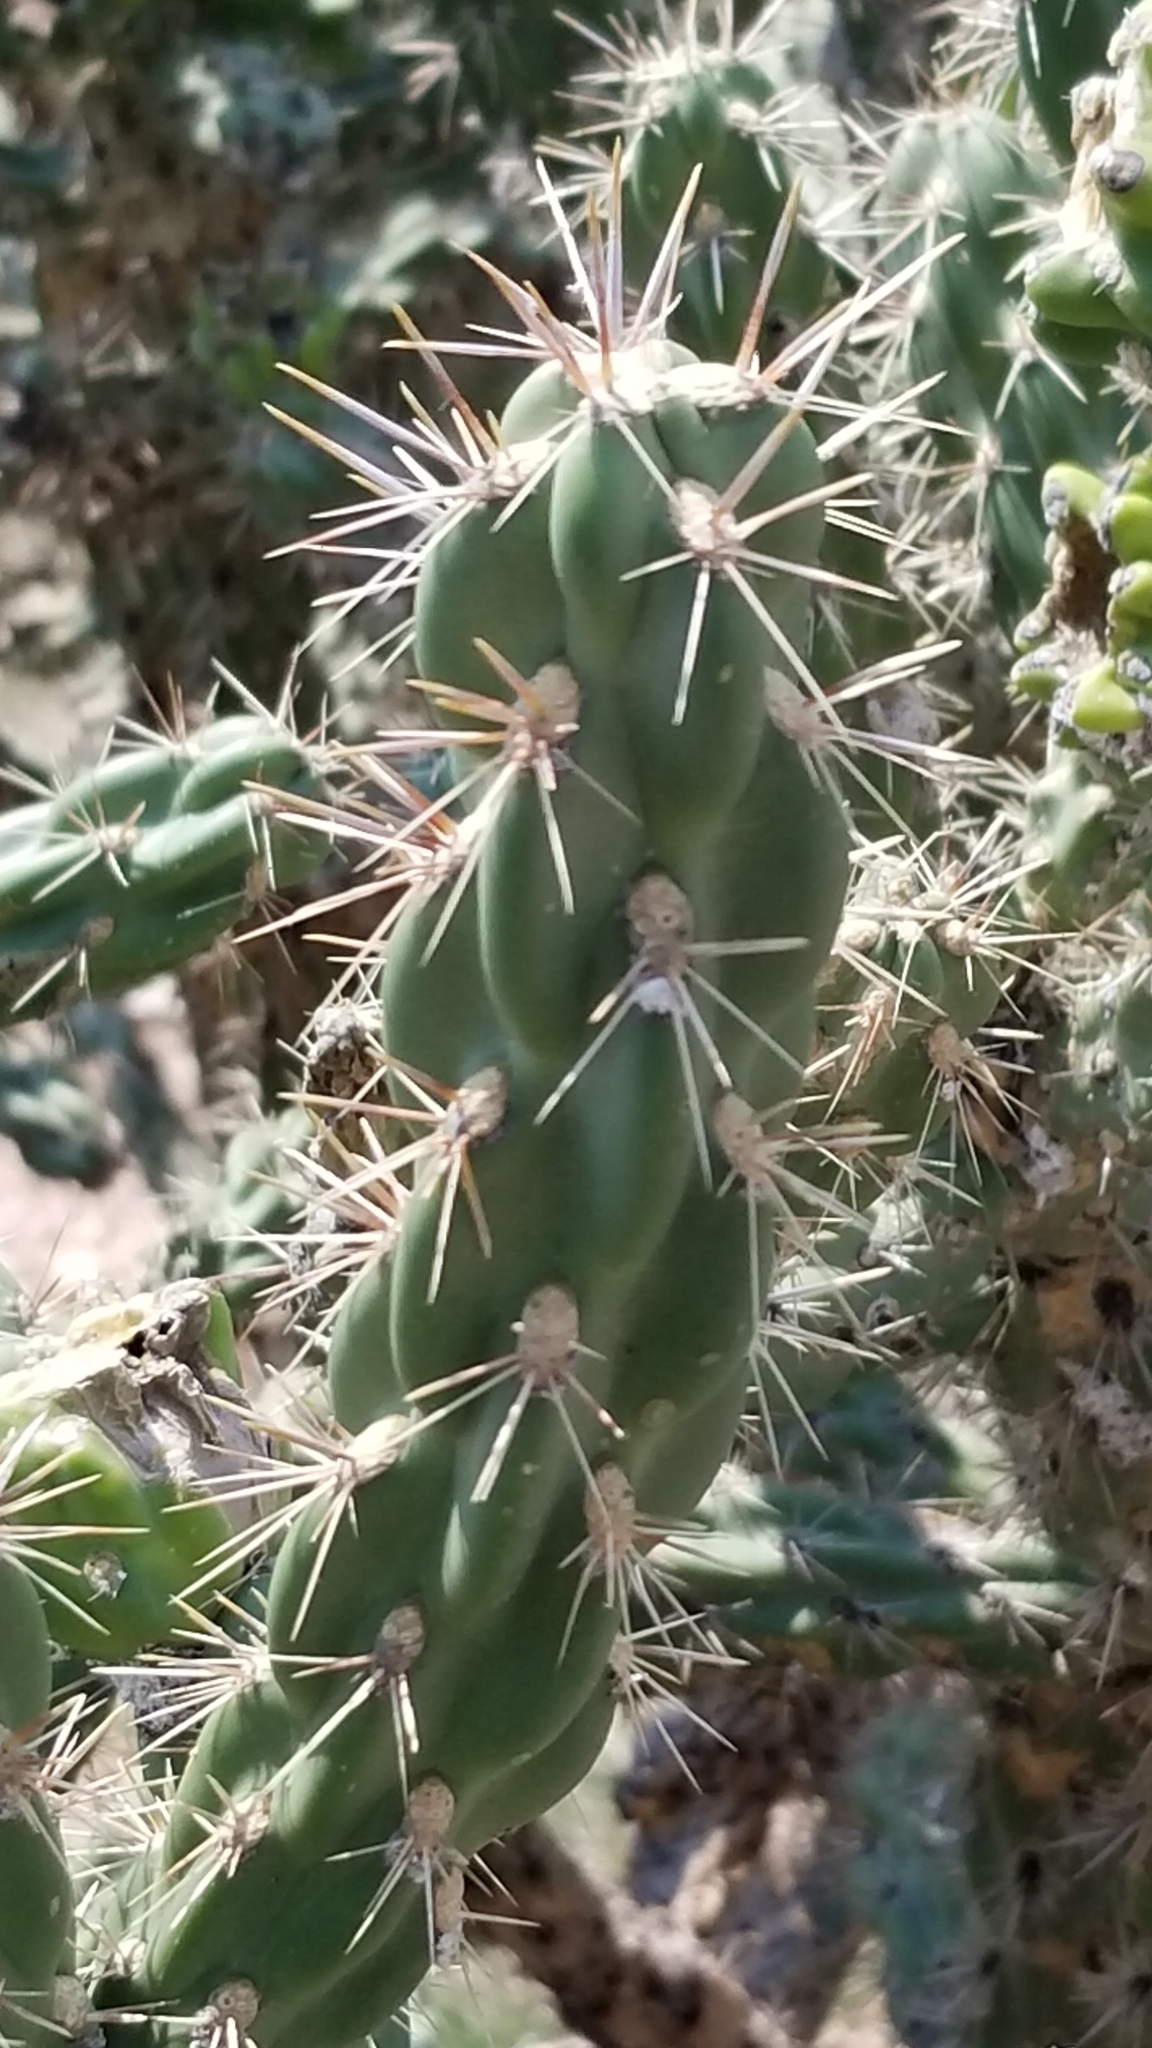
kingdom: Plantae
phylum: Tracheophyta
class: Magnoliopsida
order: Caryophyllales
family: Cactaceae
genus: Cylindropuntia
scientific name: Cylindropuntia imbricata
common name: Candelabrum cactus
